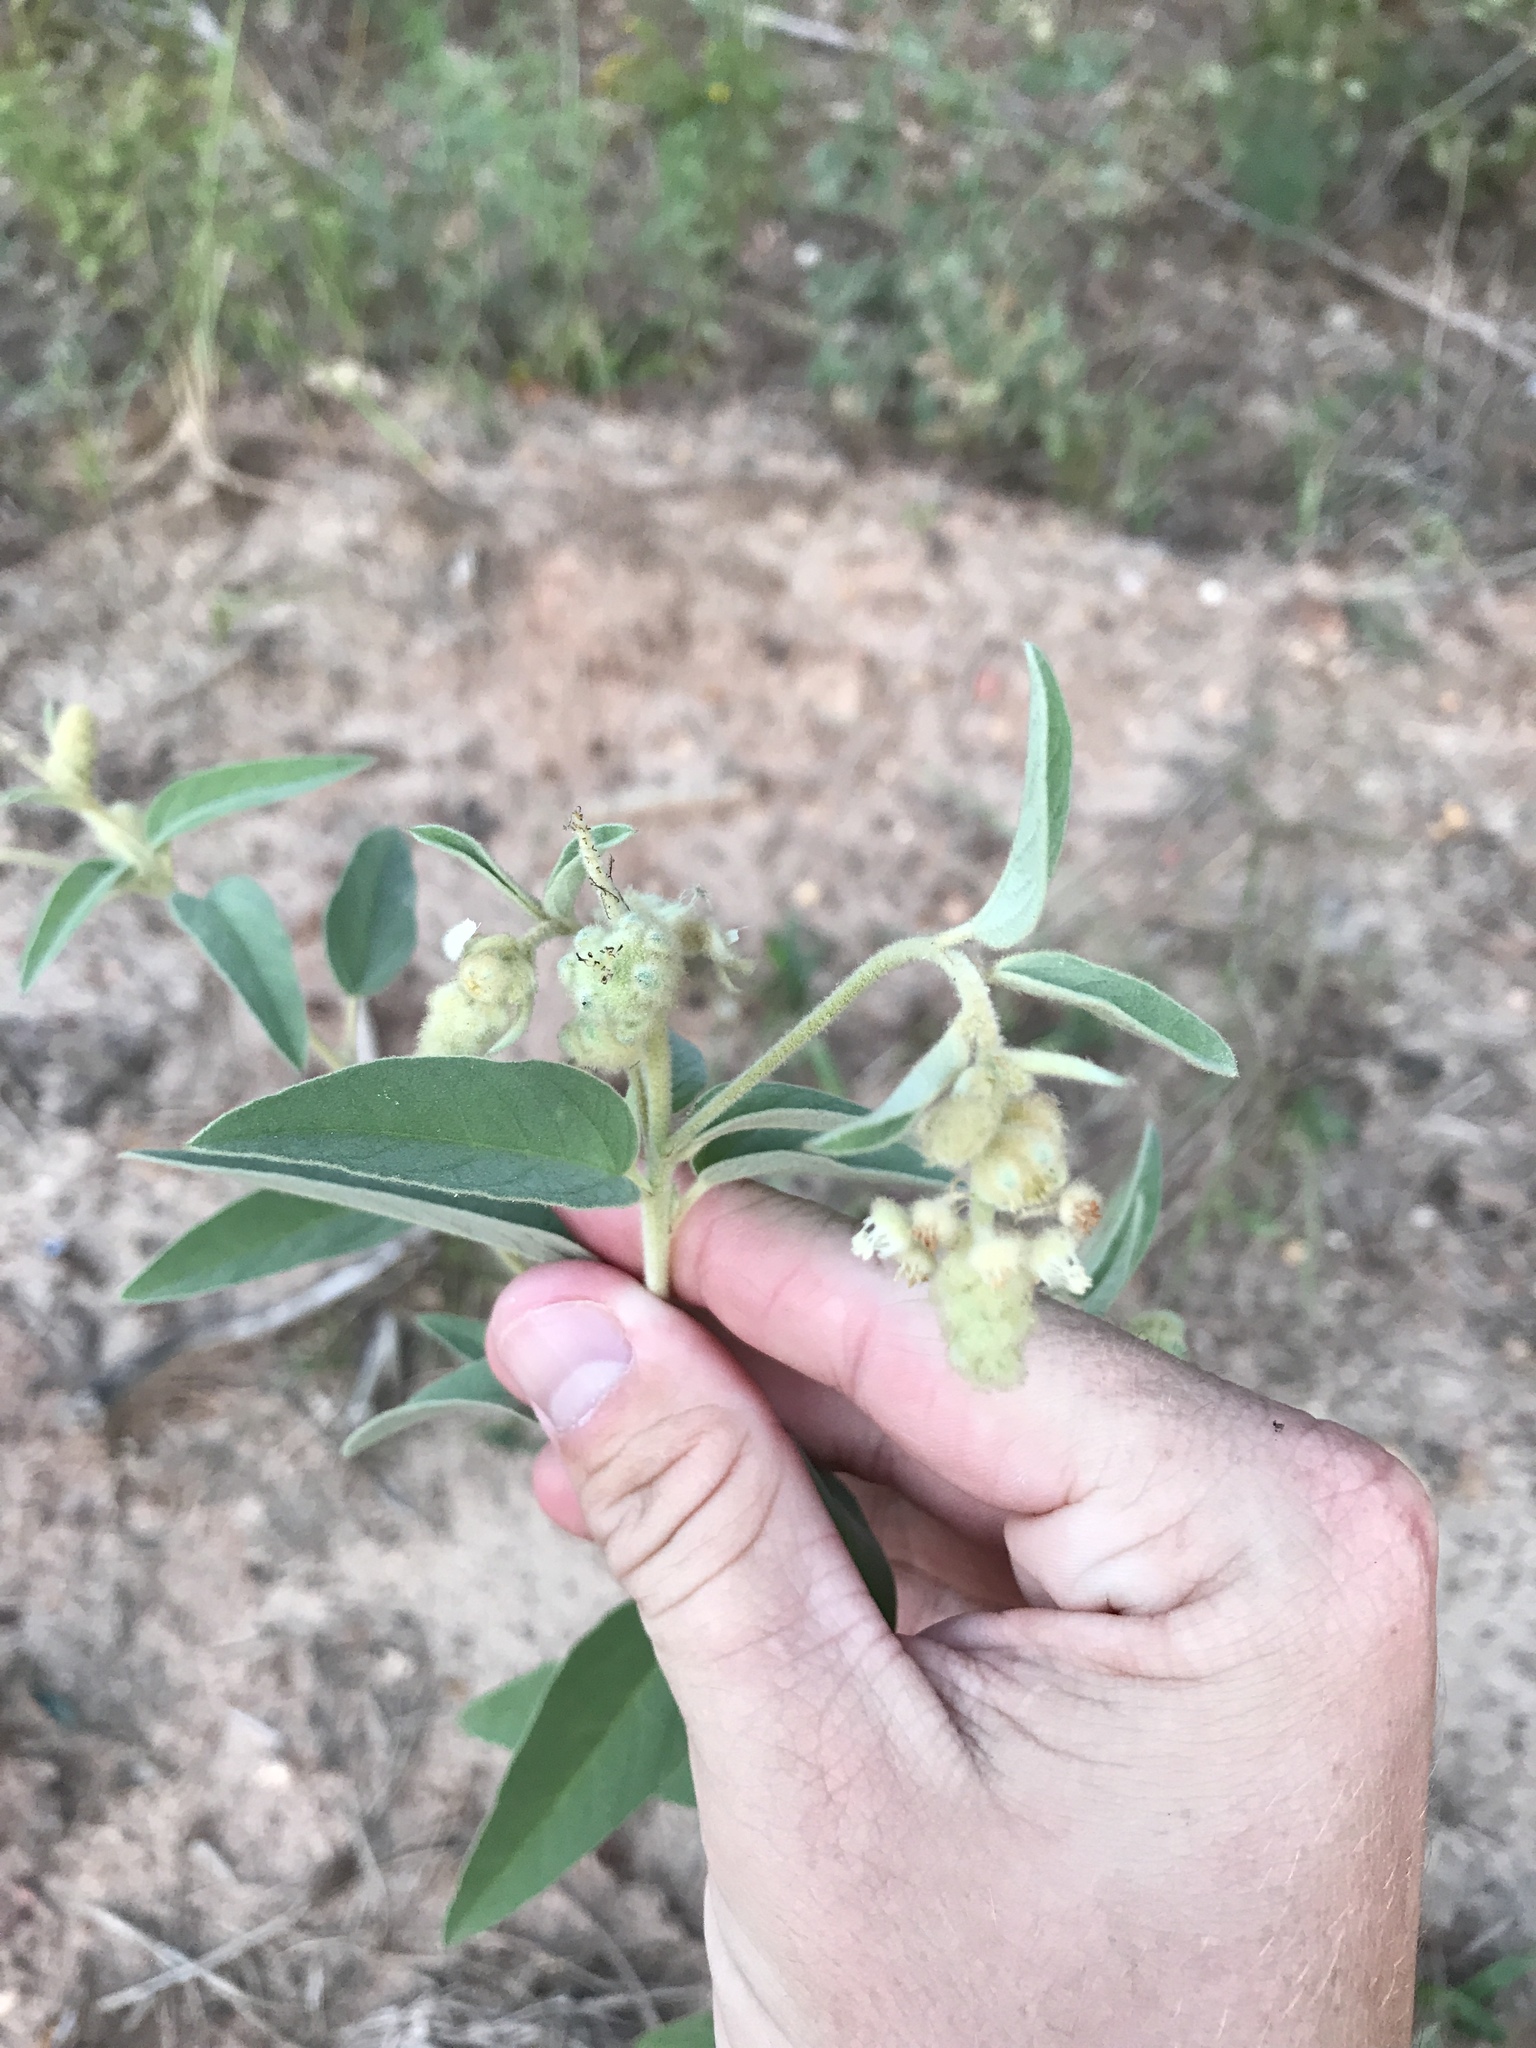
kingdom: Plantae
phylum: Tracheophyta
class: Magnoliopsida
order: Malpighiales
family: Euphorbiaceae
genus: Croton
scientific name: Croton lindheimeri
